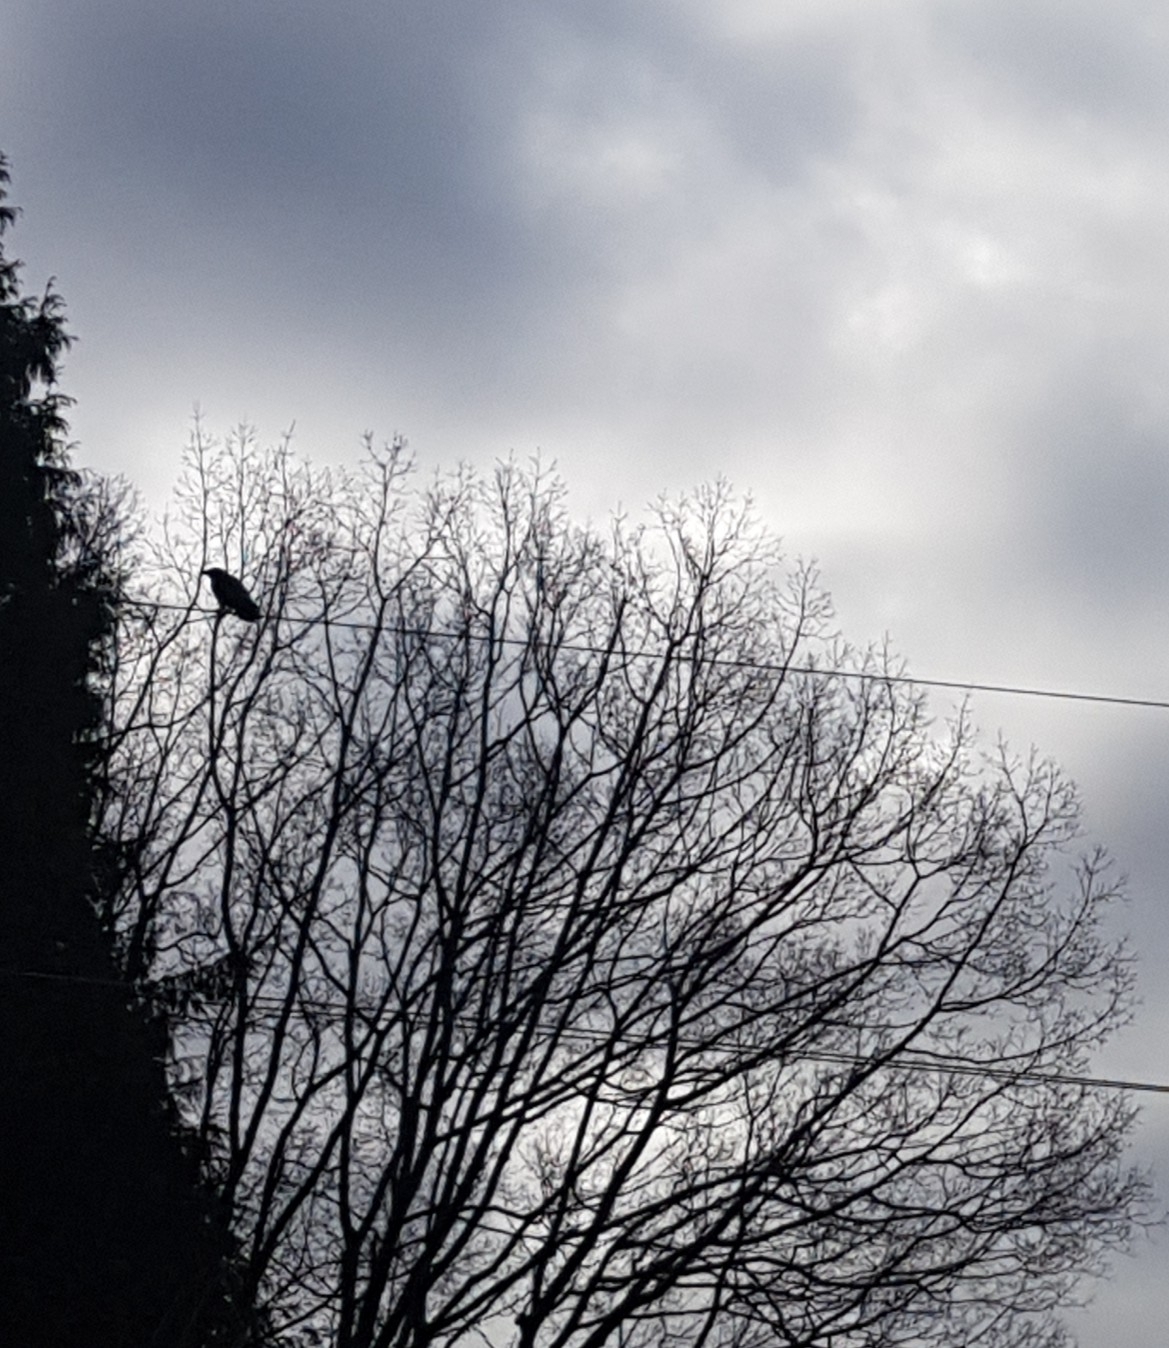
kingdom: Animalia
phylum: Chordata
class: Aves
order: Passeriformes
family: Corvidae
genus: Corvus
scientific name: Corvus brachyrhynchos
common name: American crow
